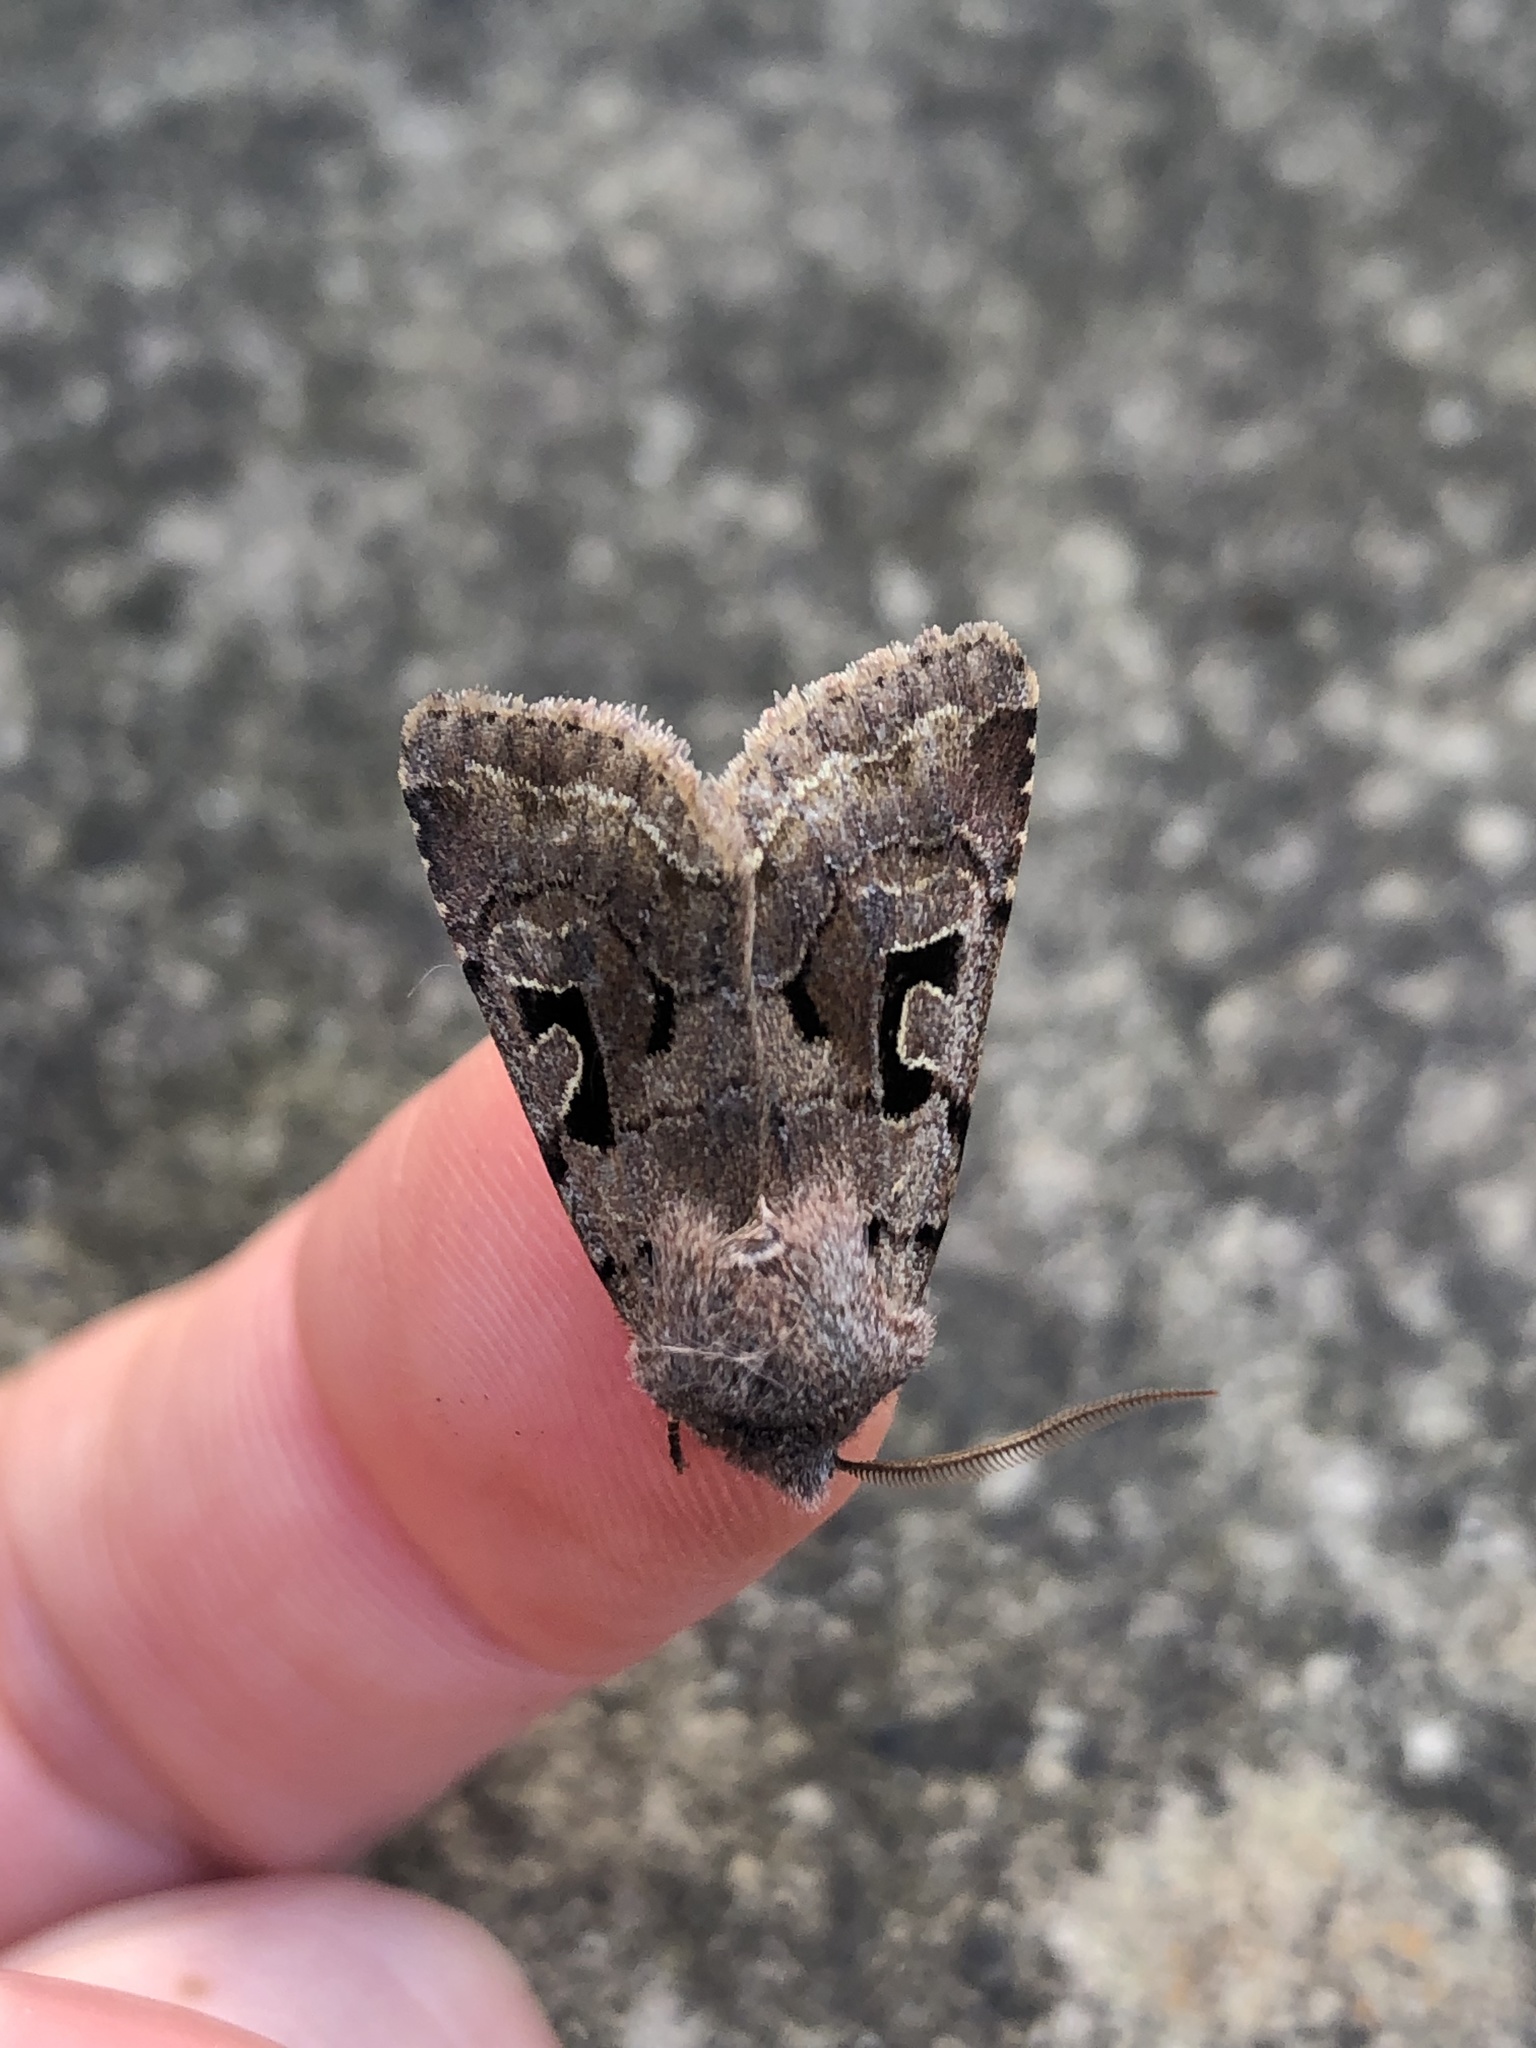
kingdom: Animalia
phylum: Arthropoda
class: Insecta
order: Lepidoptera
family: Noctuidae
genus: Orthosia
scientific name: Orthosia gothica
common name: Hebrew character
